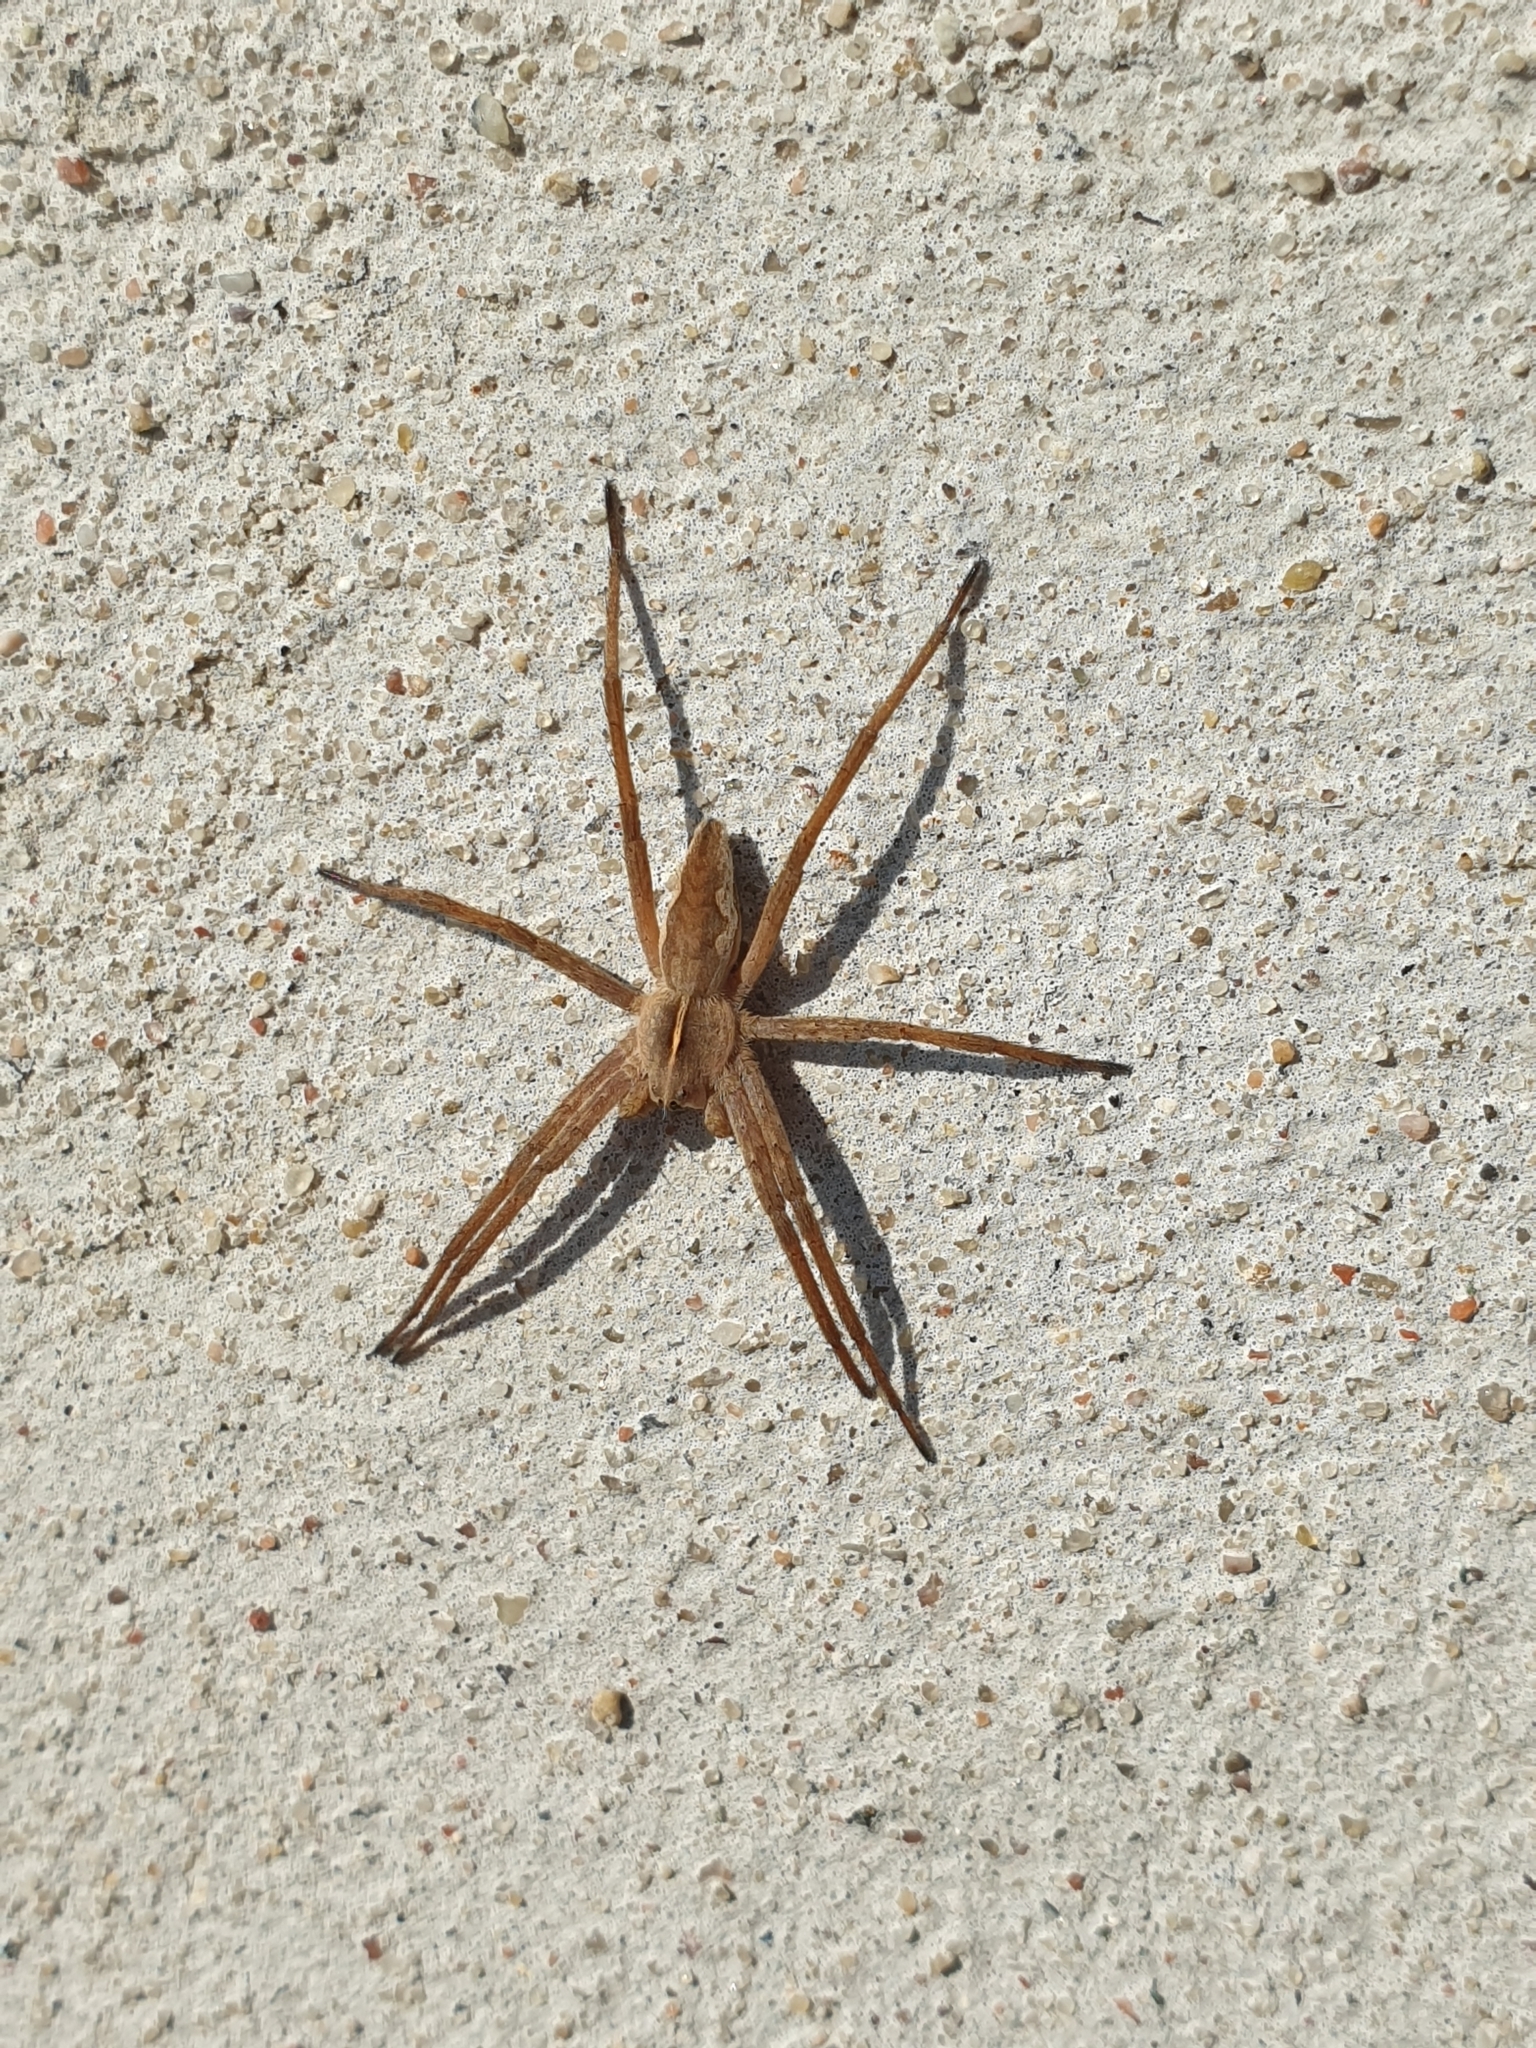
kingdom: Animalia
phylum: Arthropoda
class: Arachnida
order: Araneae
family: Pisauridae
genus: Pisaura
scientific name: Pisaura mirabilis
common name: Tent spider
